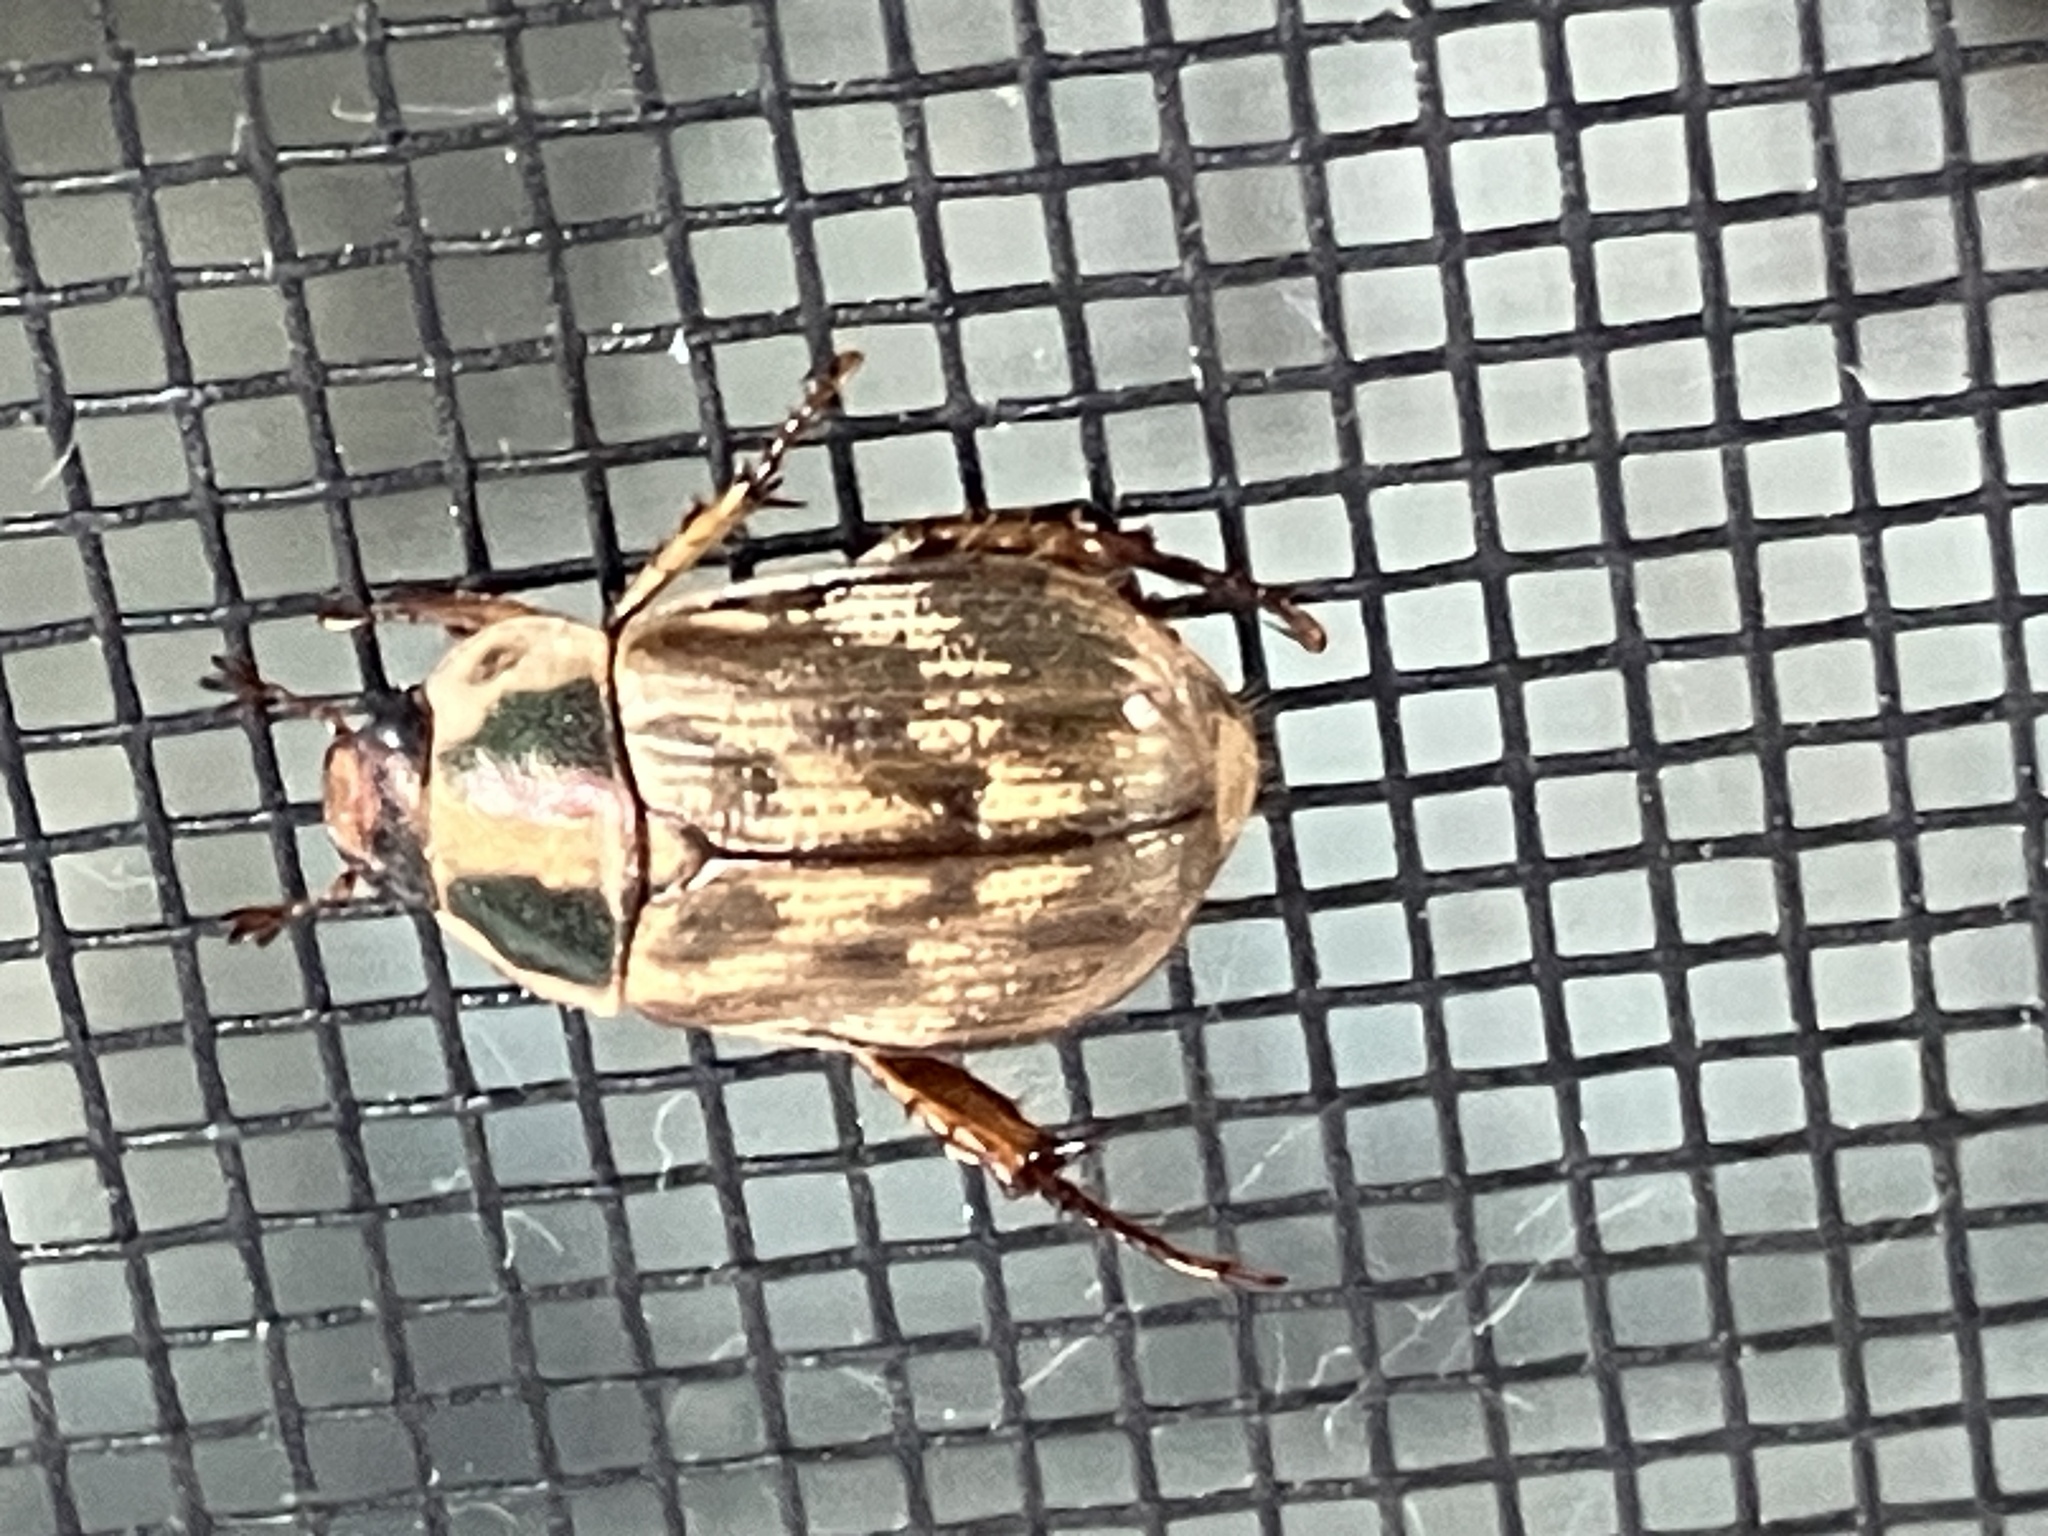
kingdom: Animalia
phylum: Arthropoda
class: Insecta
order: Coleoptera
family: Scarabaeidae
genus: Exomala
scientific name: Exomala orientalis
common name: Oriental beetle
